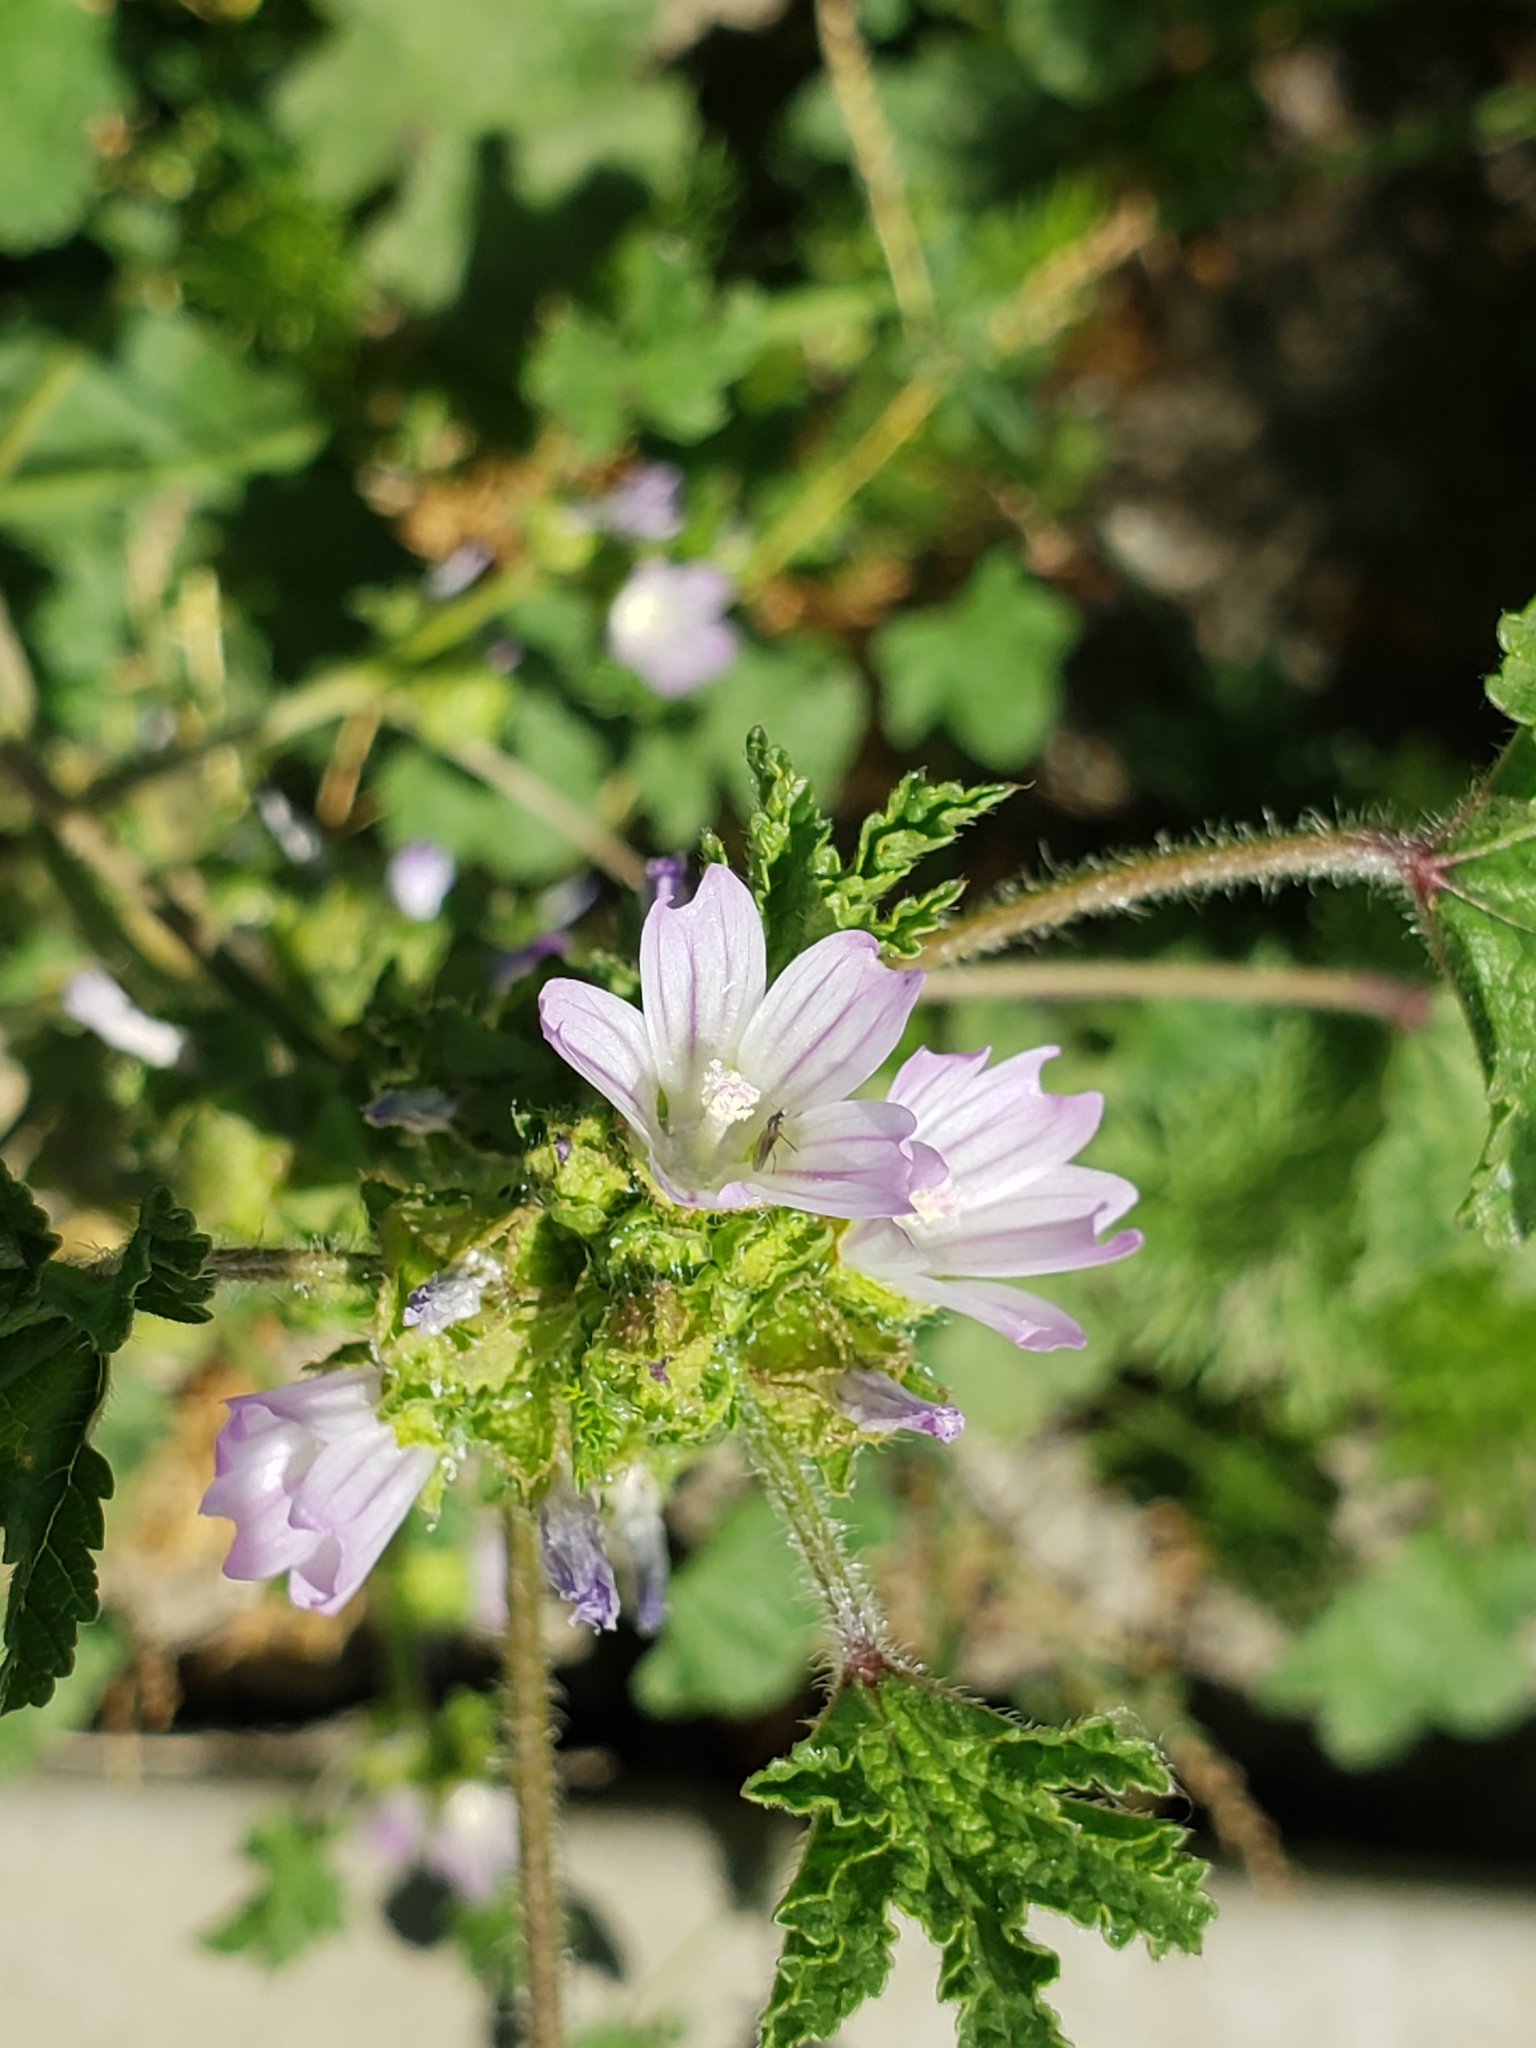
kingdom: Plantae
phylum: Tracheophyta
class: Magnoliopsida
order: Malvales
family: Malvaceae
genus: Malva
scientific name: Malva nicaeensis
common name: French mallow
